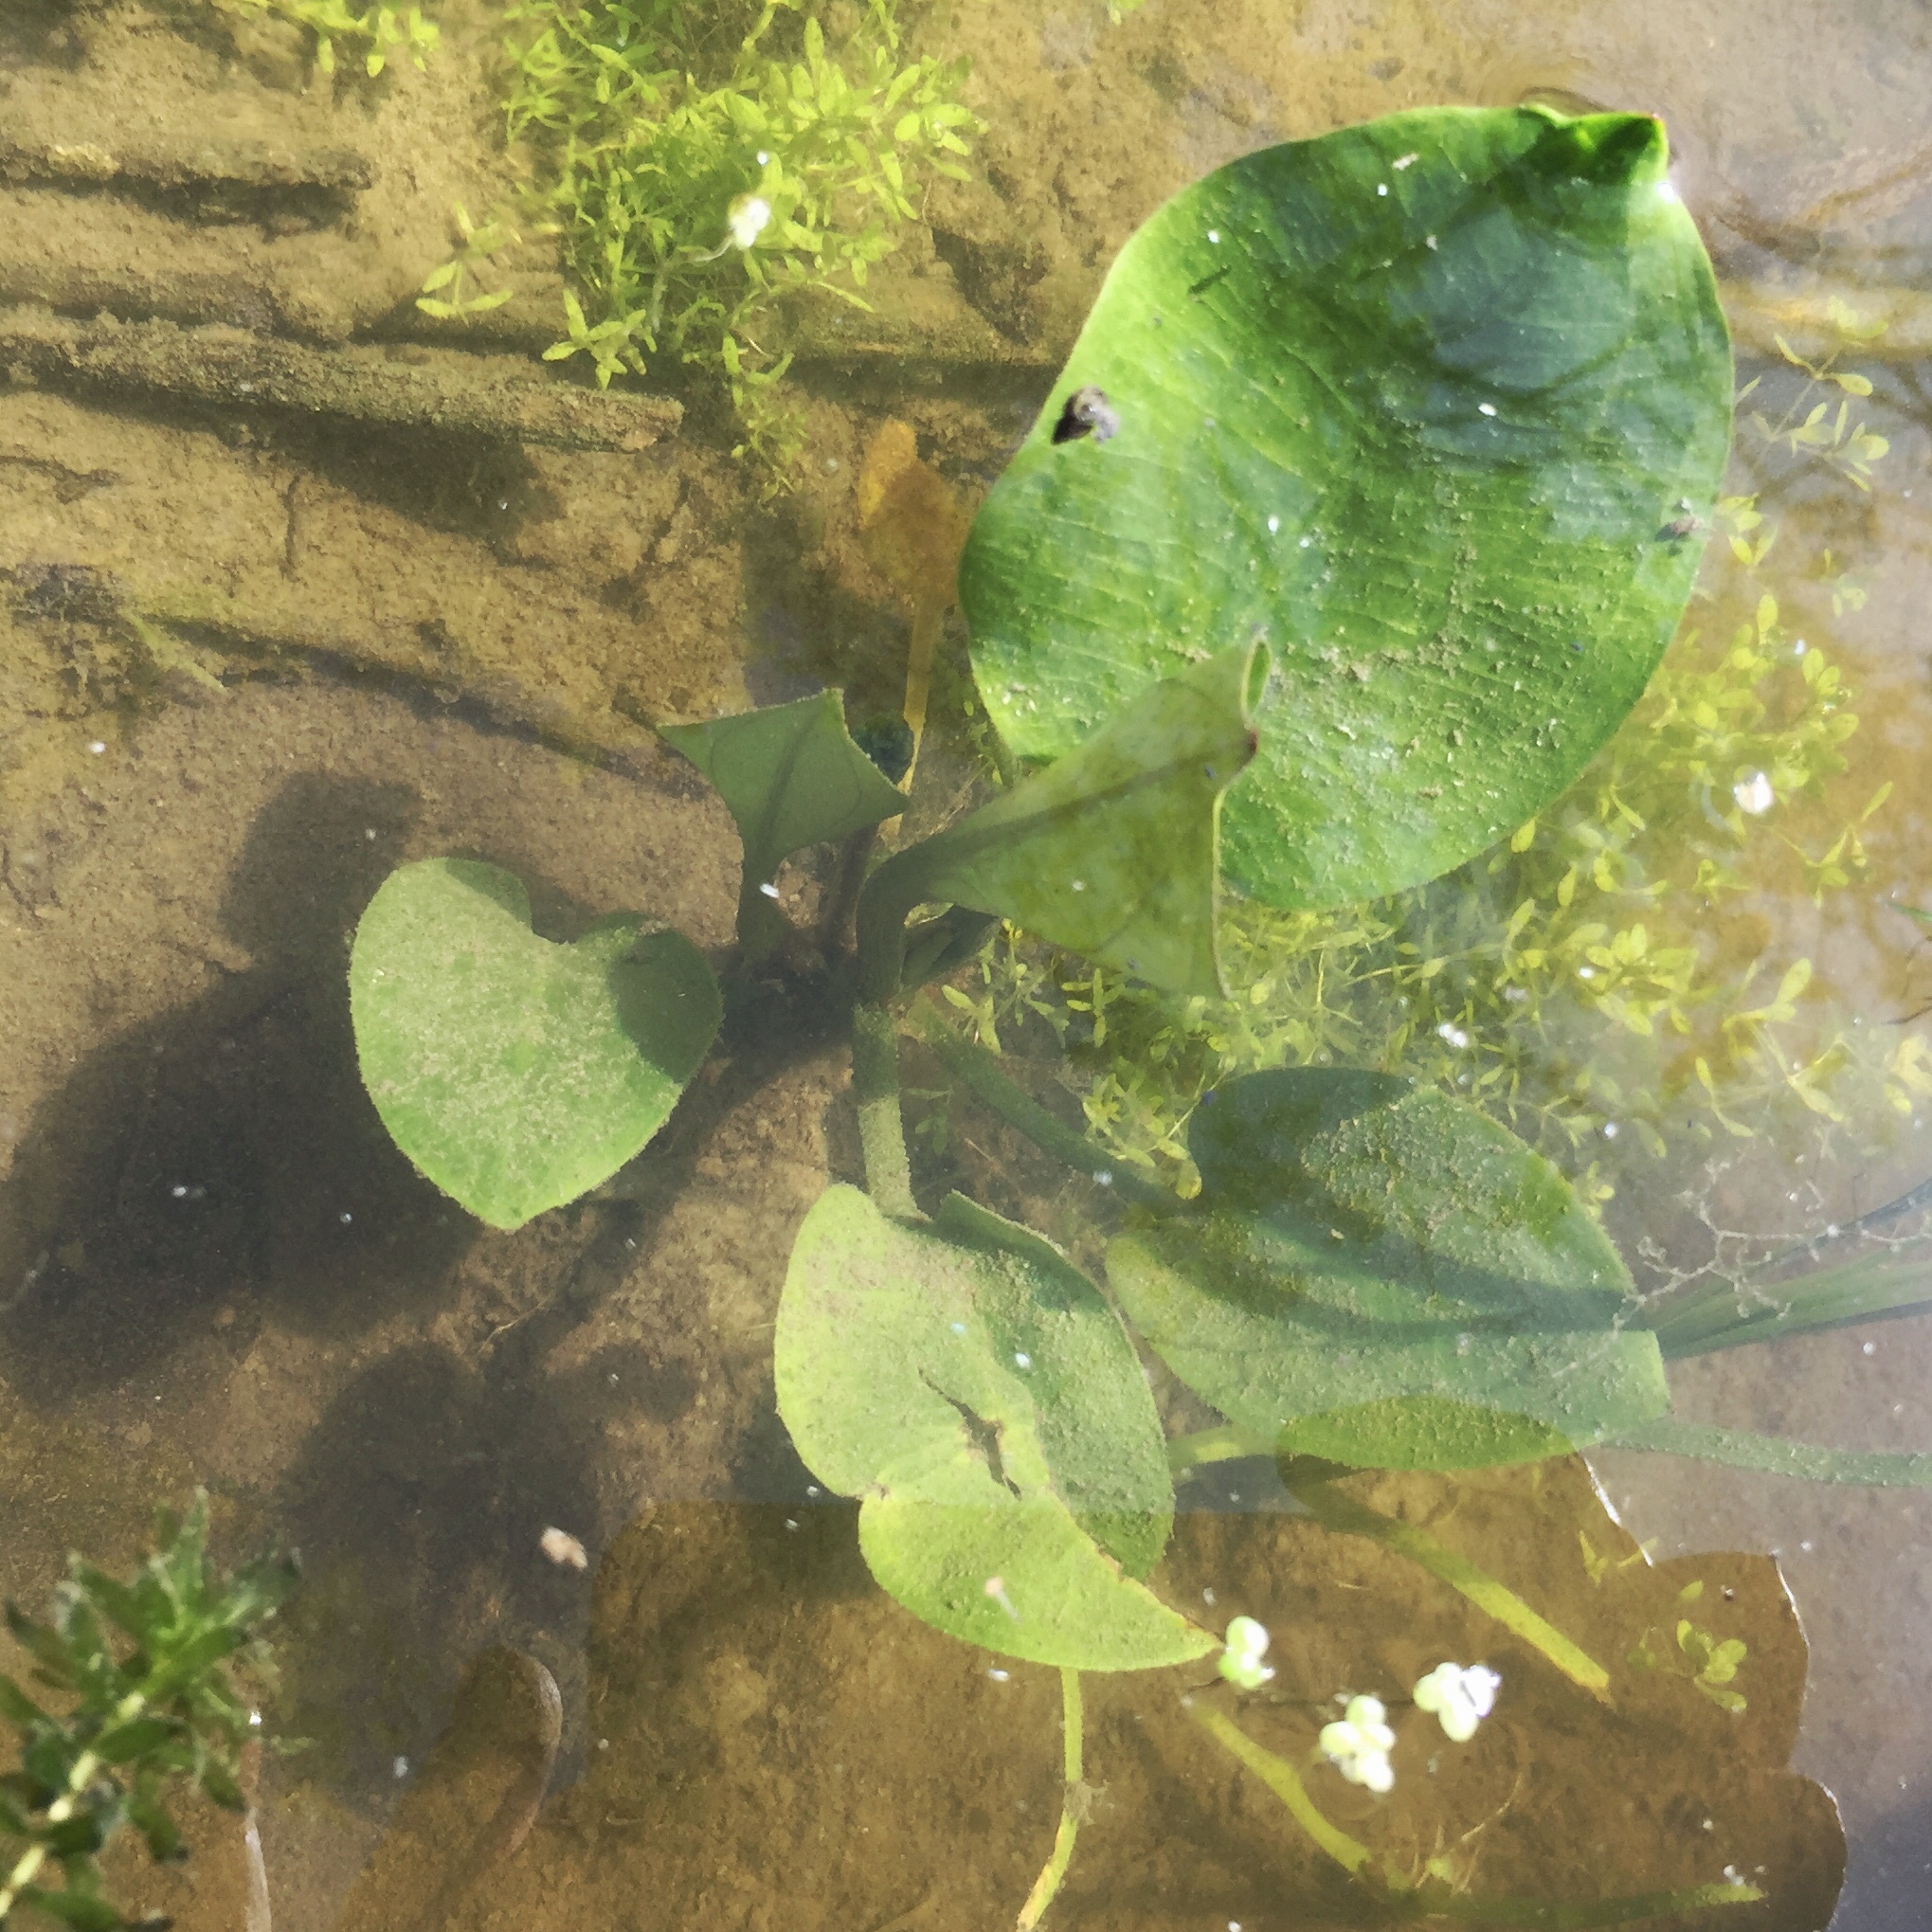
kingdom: Plantae
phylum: Tracheophyta
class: Liliopsida
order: Alismatales
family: Alismataceae
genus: Alisma
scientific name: Alisma triviale
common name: Northern water-plantain
